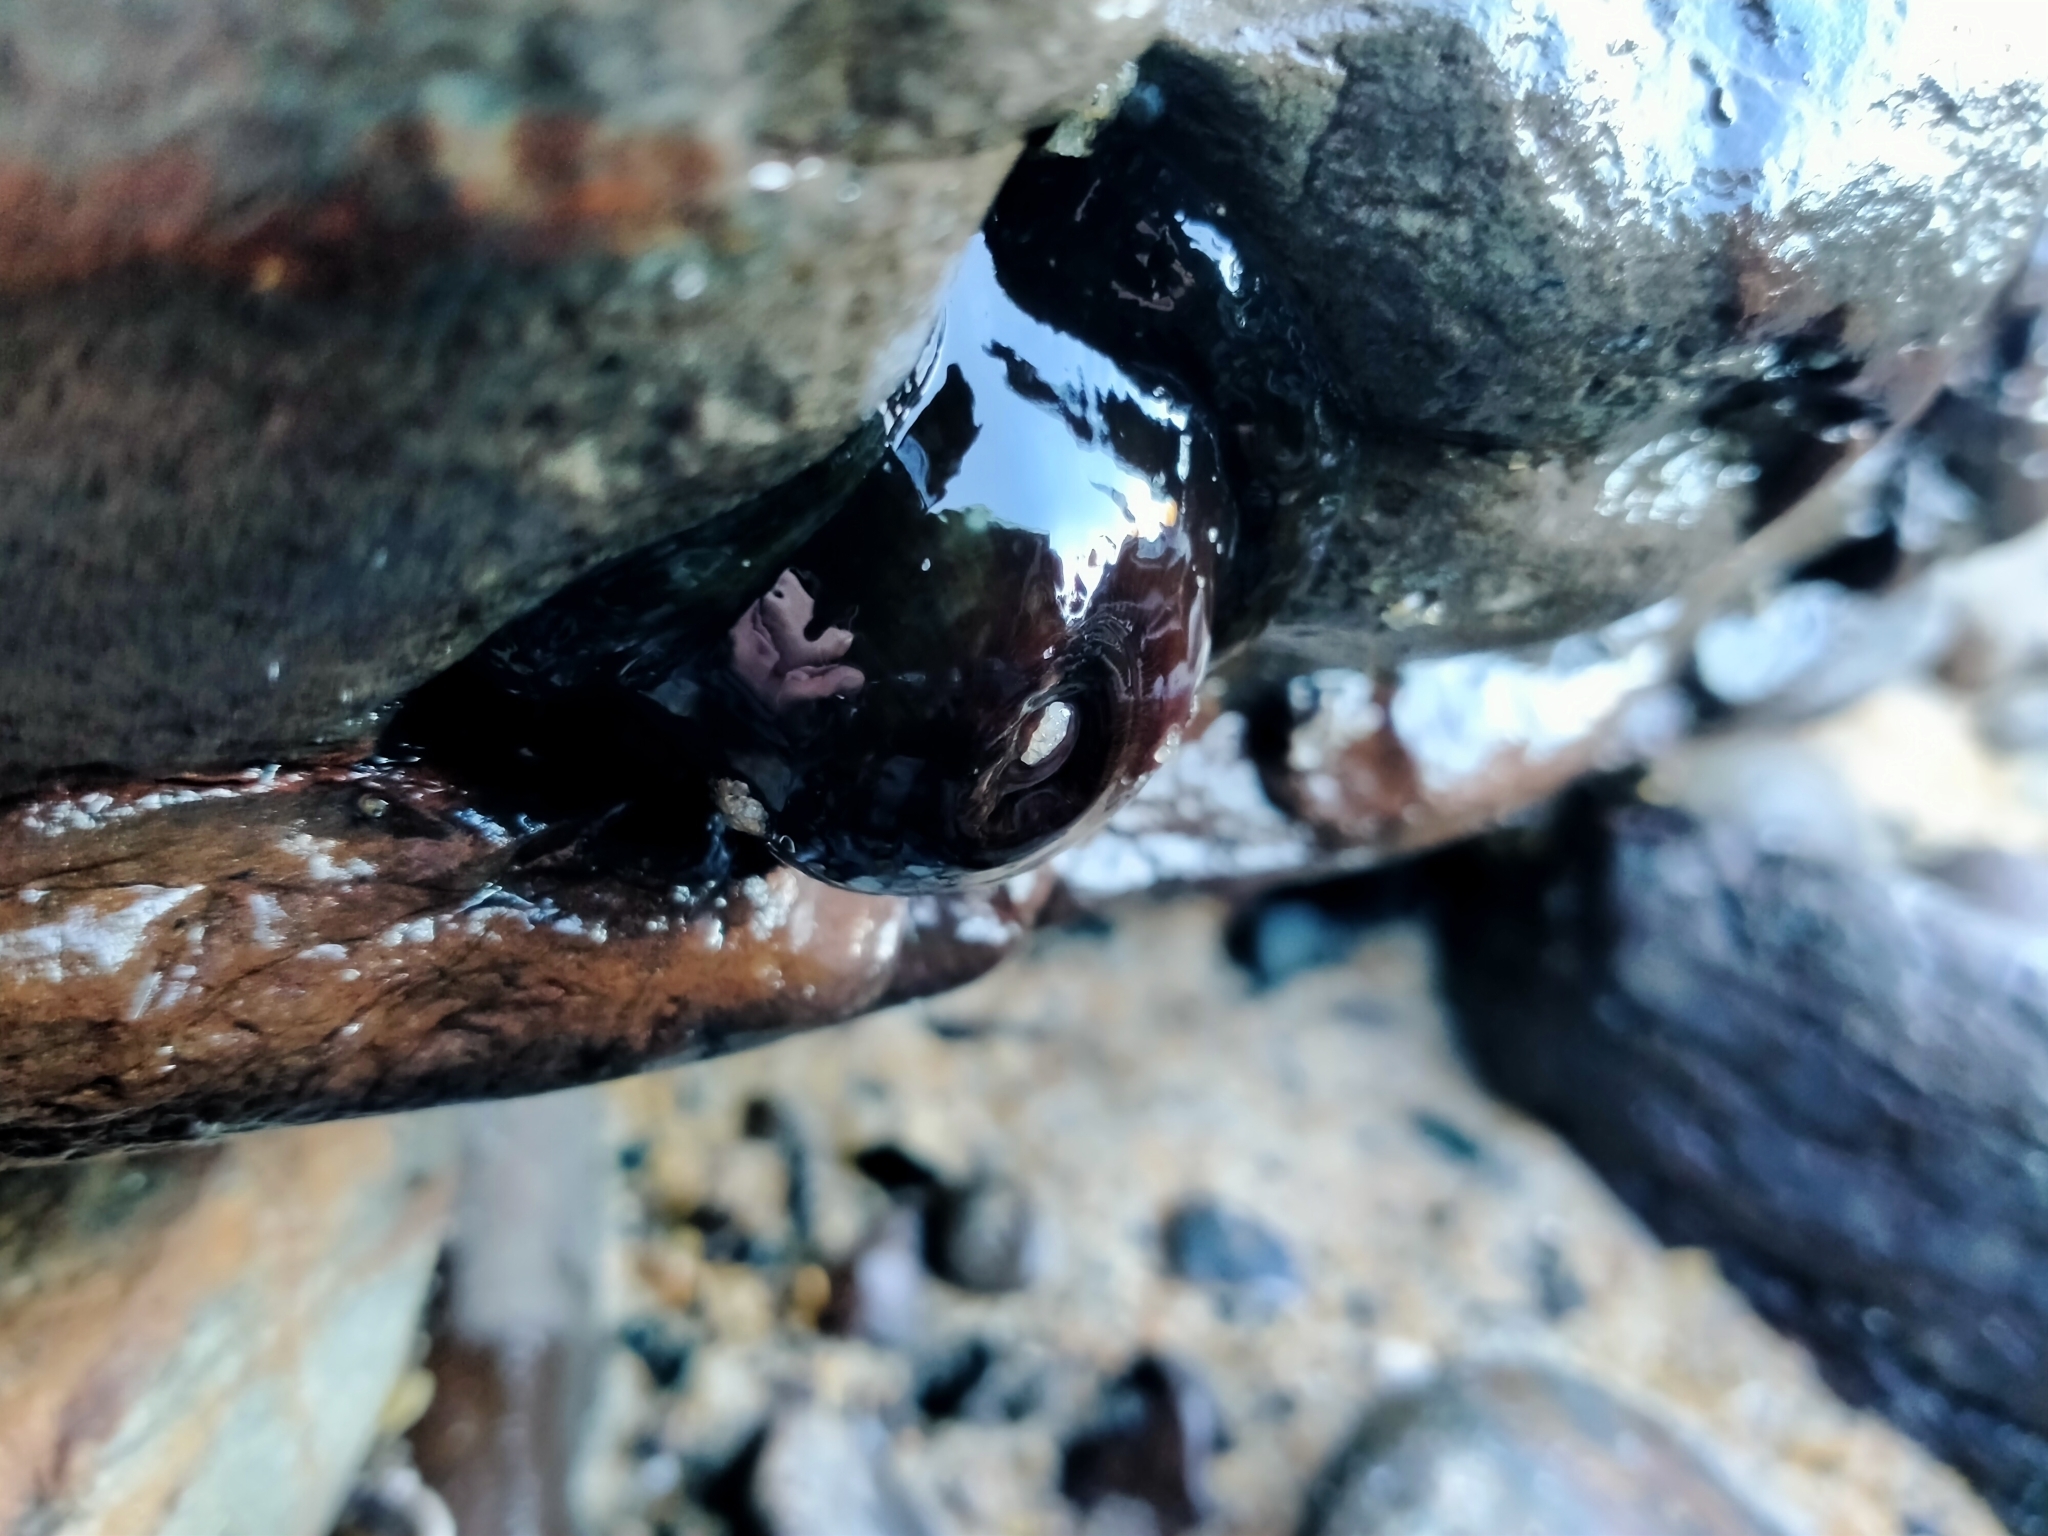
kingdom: Animalia
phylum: Cnidaria
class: Anthozoa
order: Actiniaria
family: Actiniidae
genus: Actinia
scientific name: Actinia tenebrosa
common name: Waratah anemone
